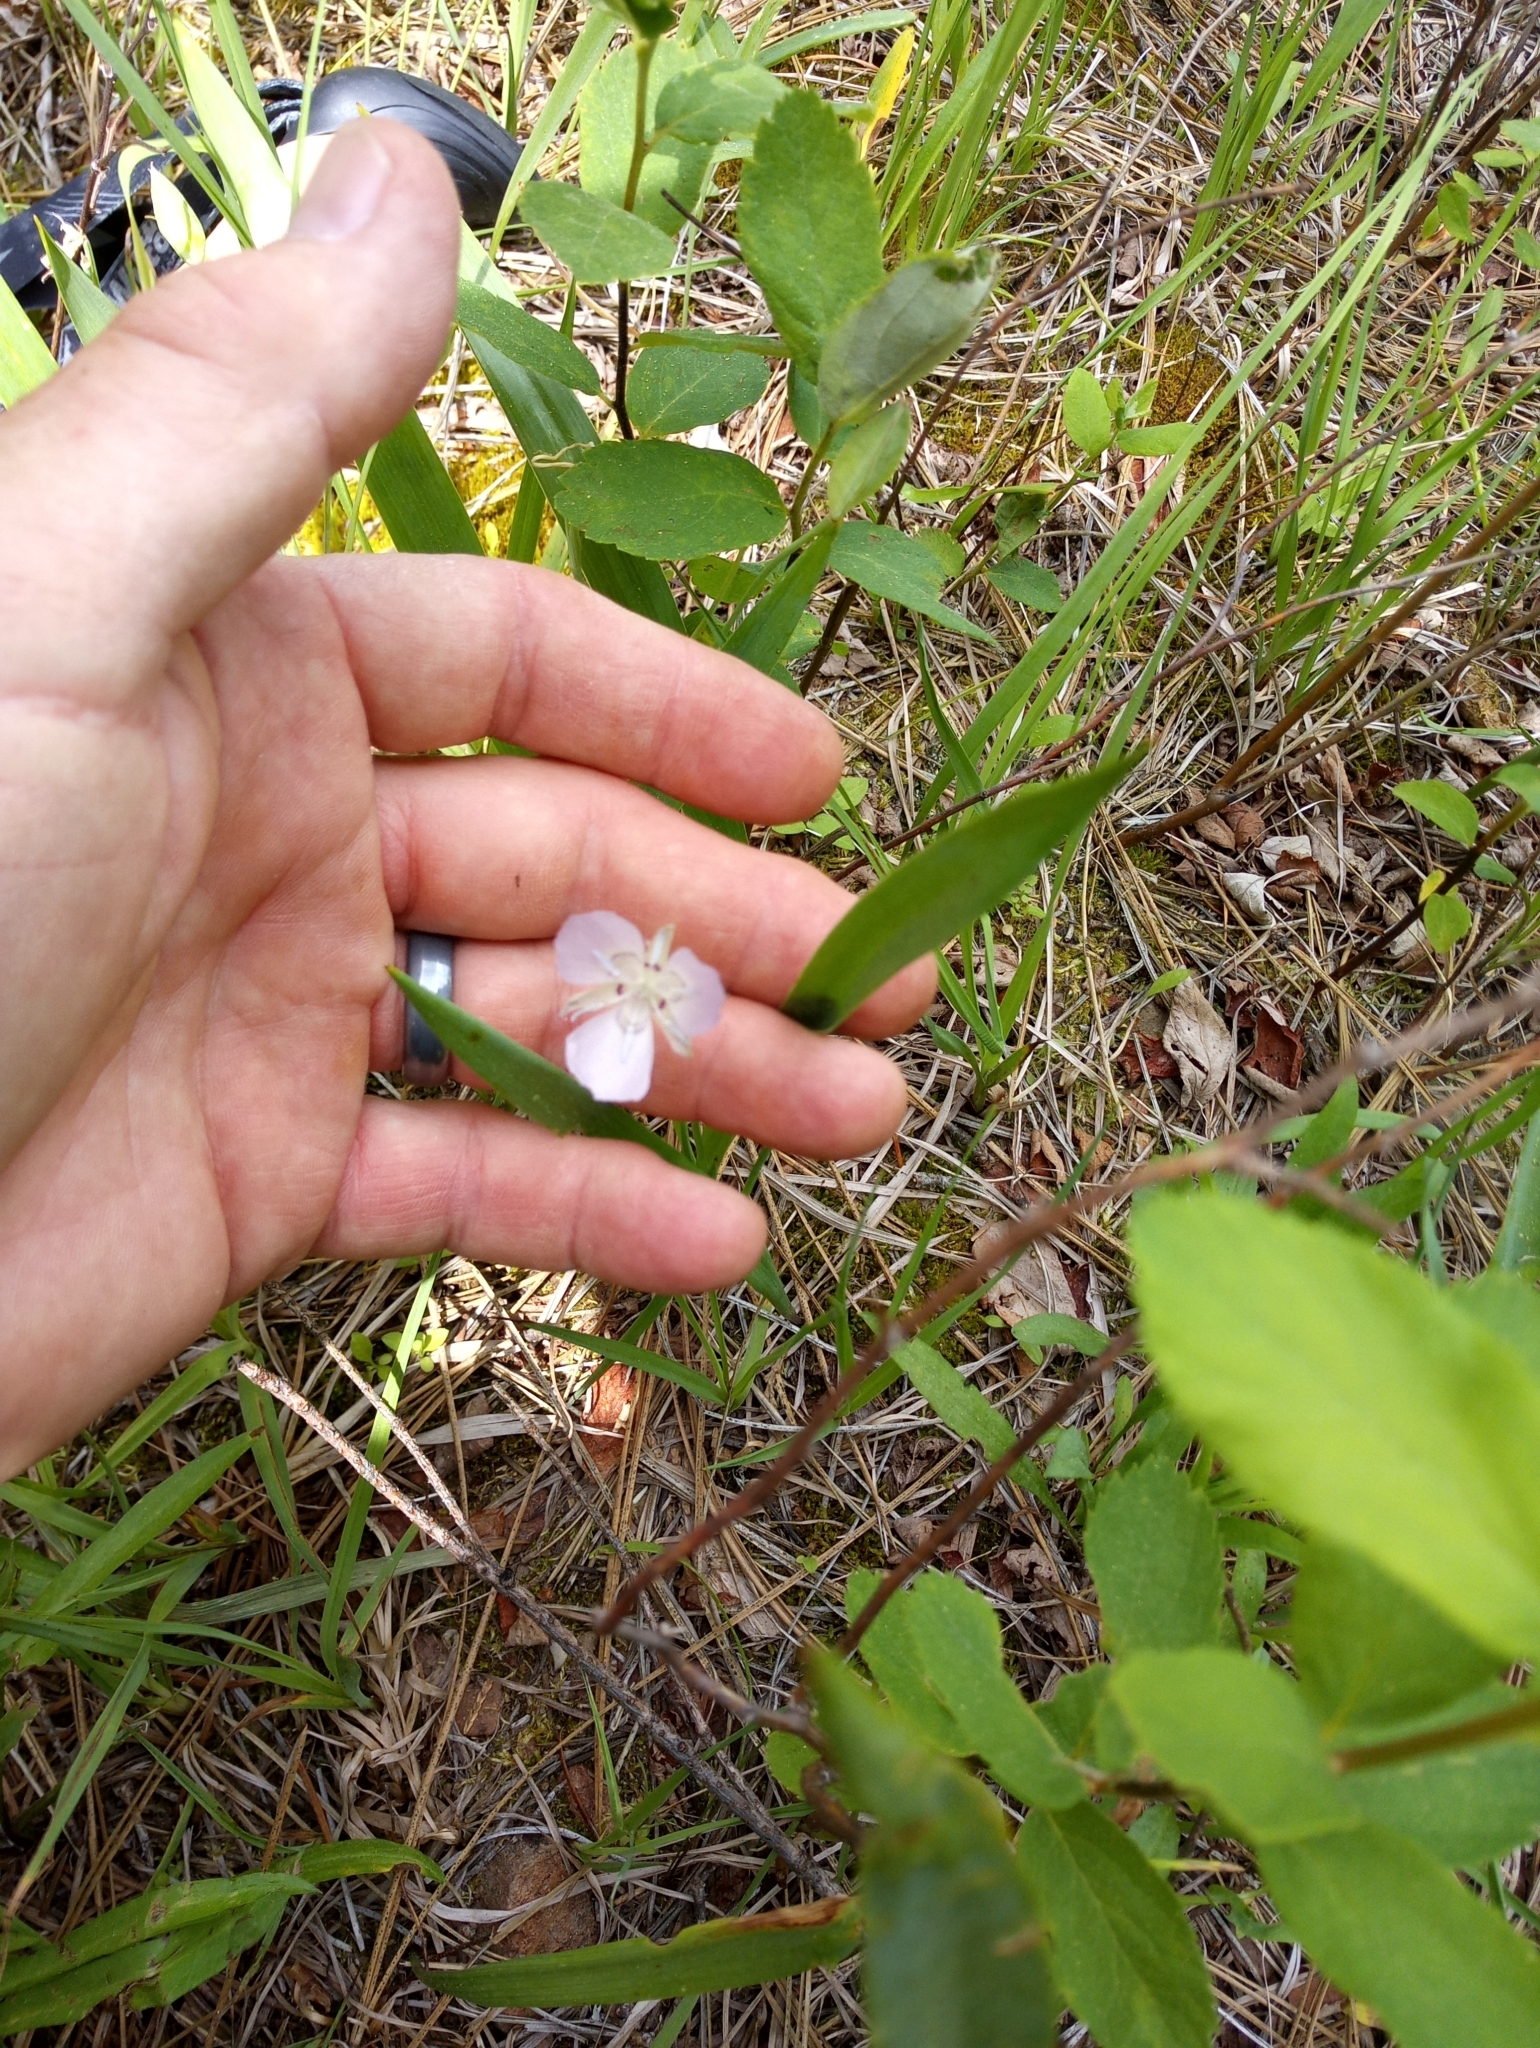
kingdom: Plantae
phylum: Tracheophyta
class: Liliopsida
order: Liliales
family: Liliaceae
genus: Calochortus
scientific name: Calochortus
